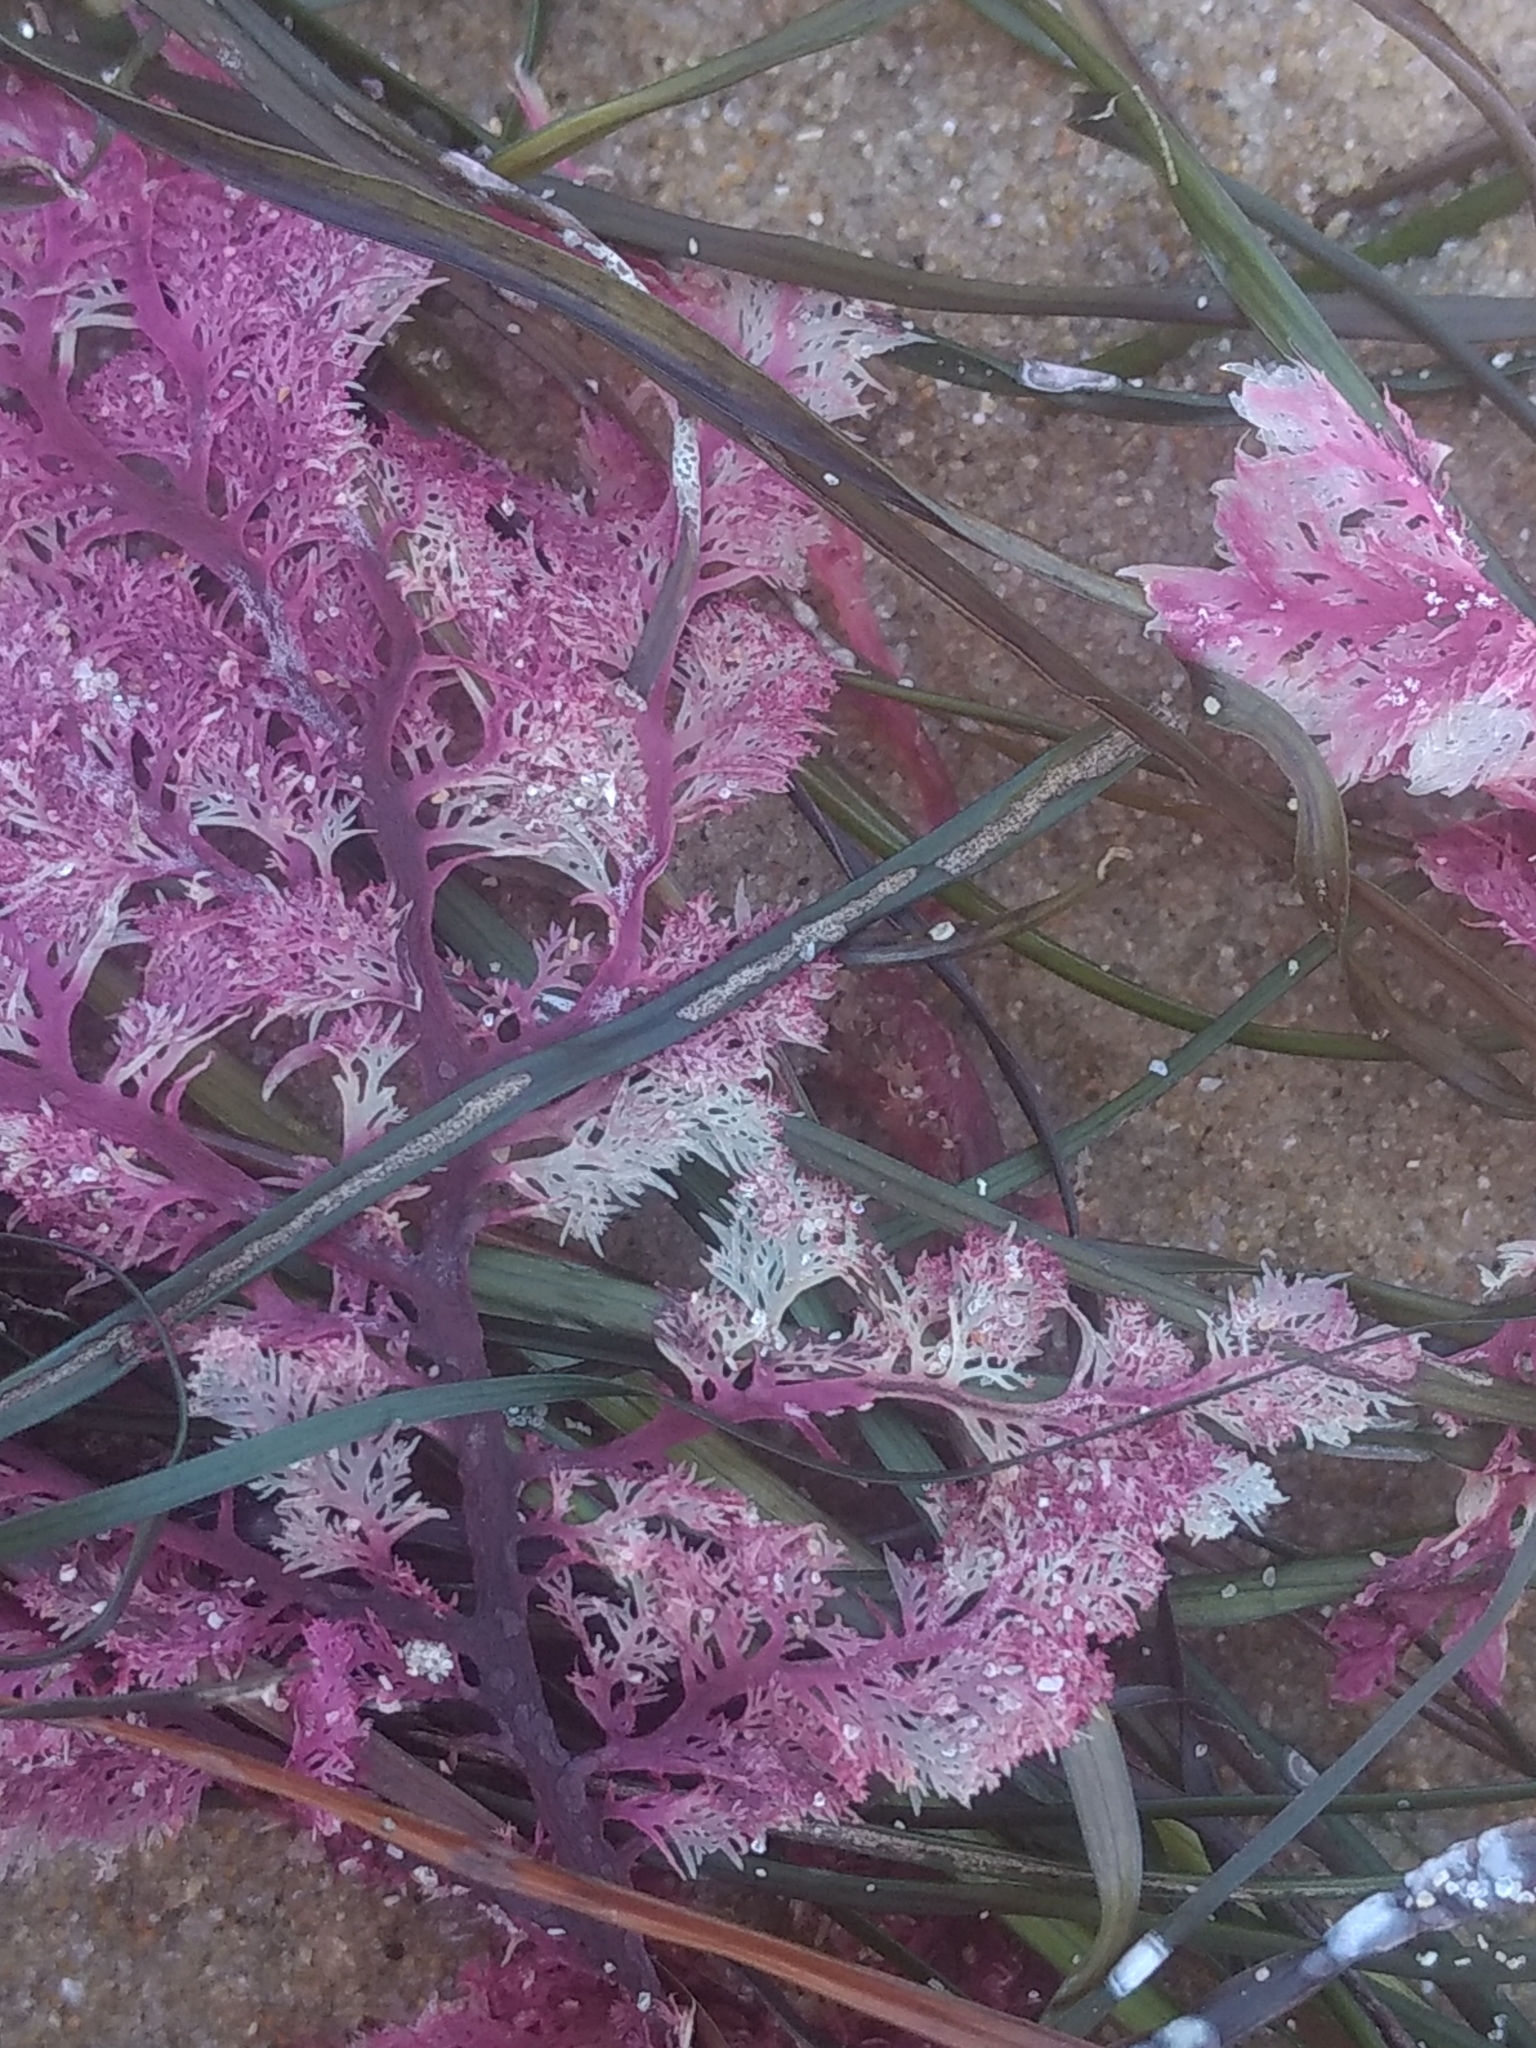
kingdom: Plantae
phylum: Rhodophyta
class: Florideophyceae
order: Plocamiales
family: Plocamiaceae
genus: Plocamium
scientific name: Plocamium cartilagineum
